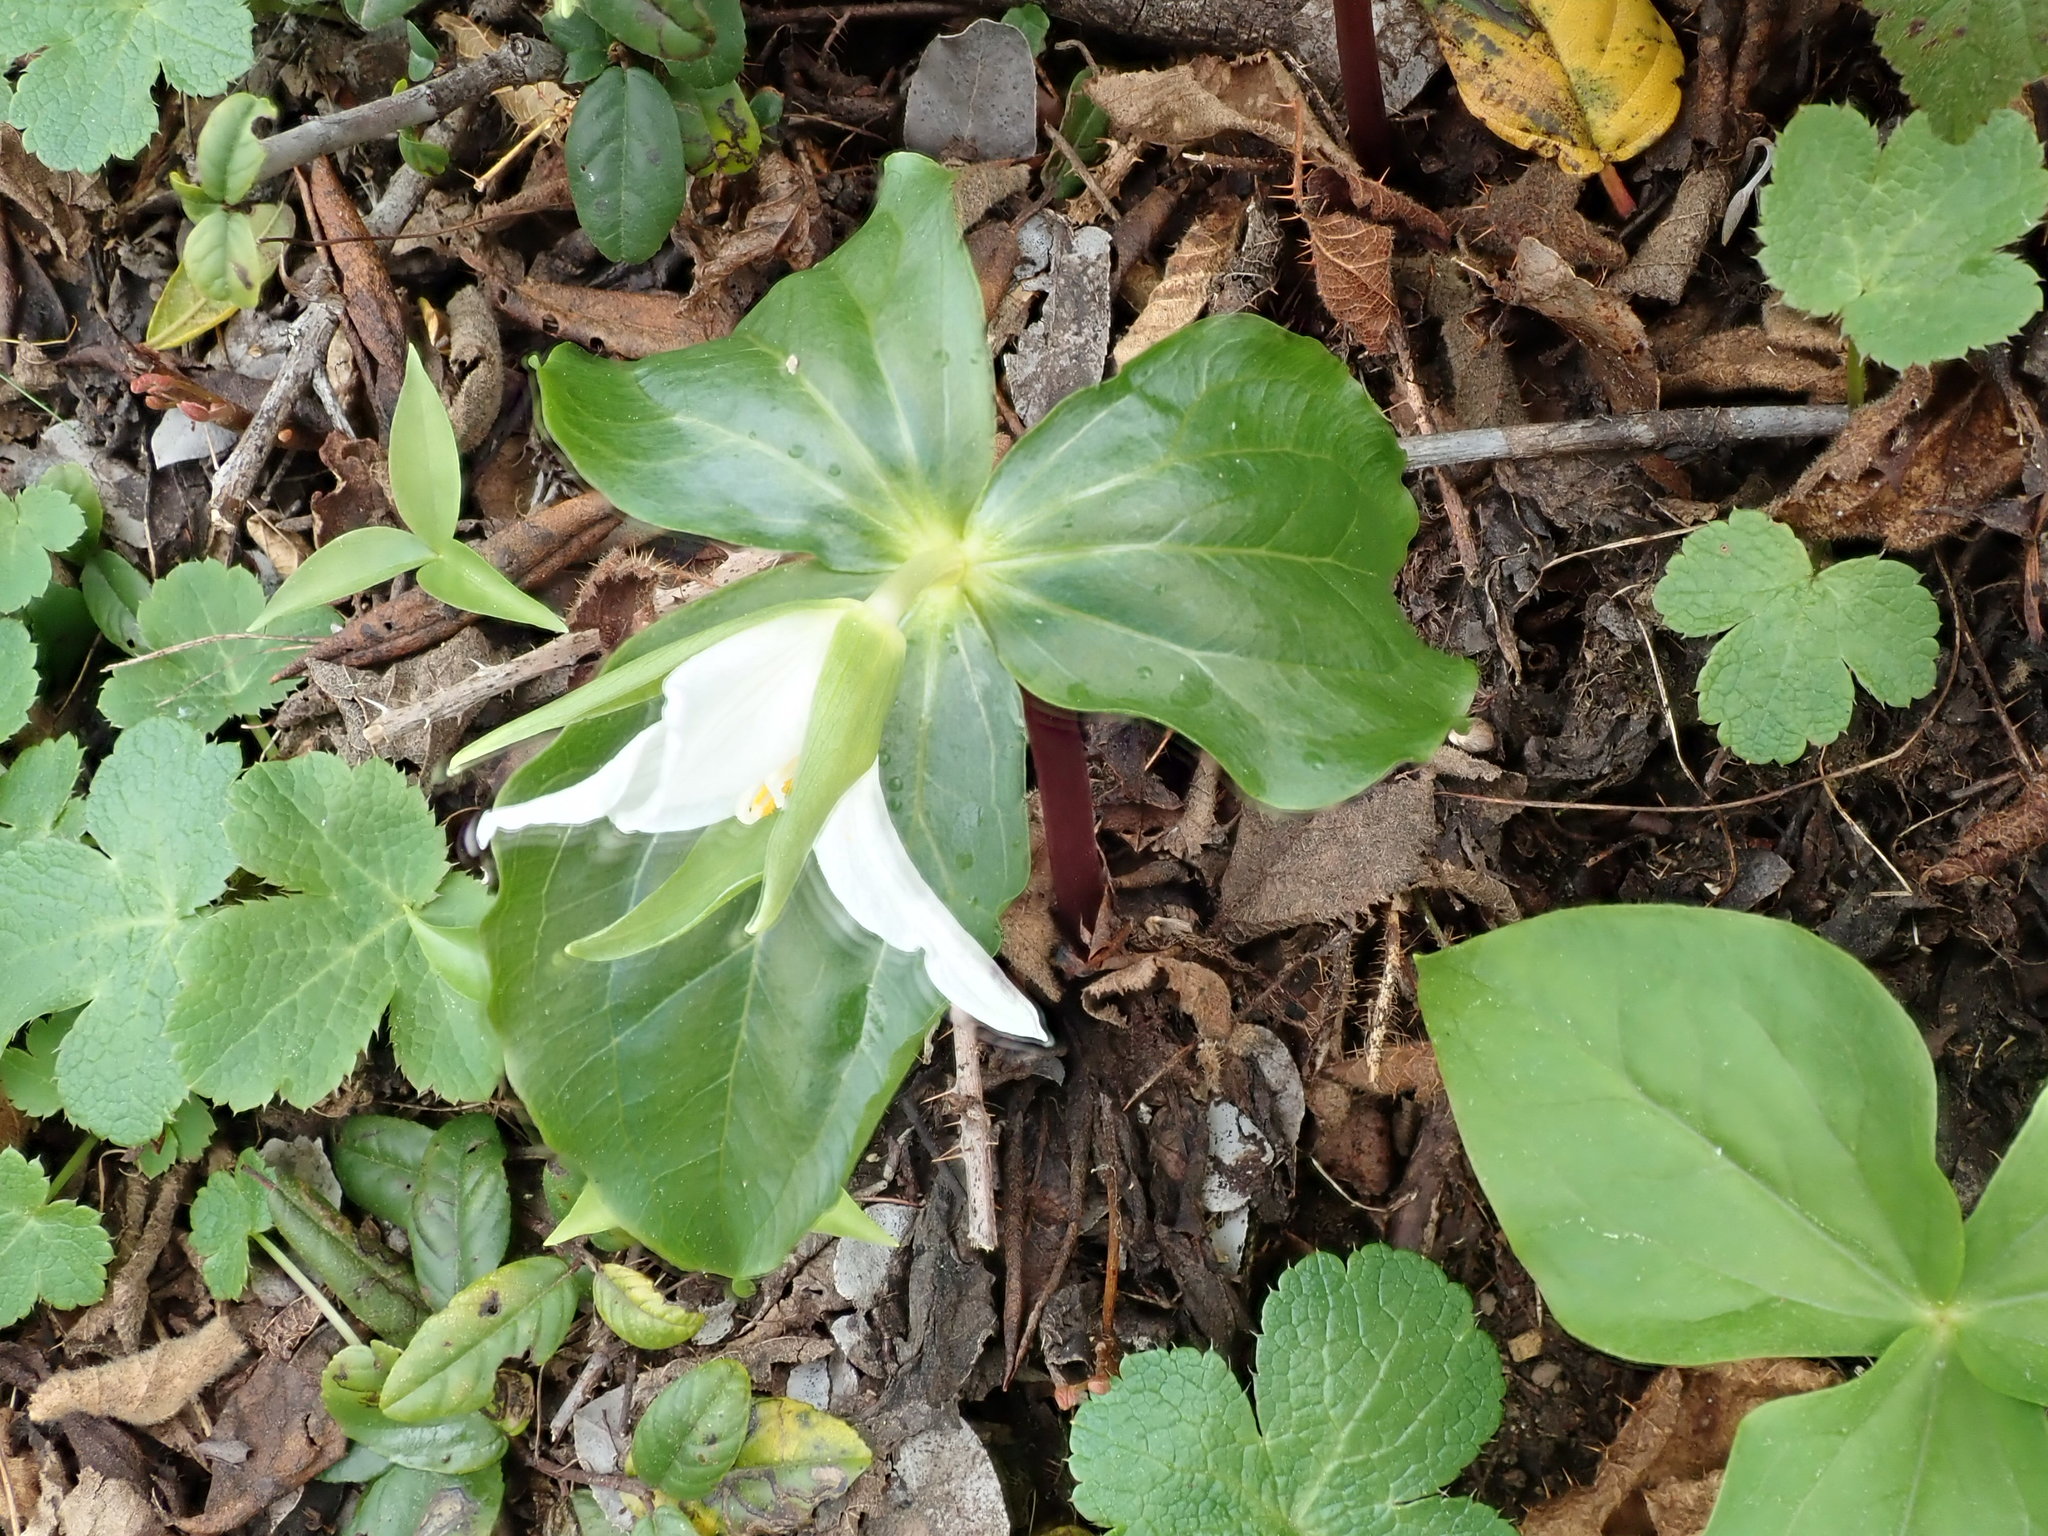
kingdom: Plantae
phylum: Tracheophyta
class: Liliopsida
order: Liliales
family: Melanthiaceae
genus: Trillium
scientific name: Trillium ovatum
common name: Pacific trillium
